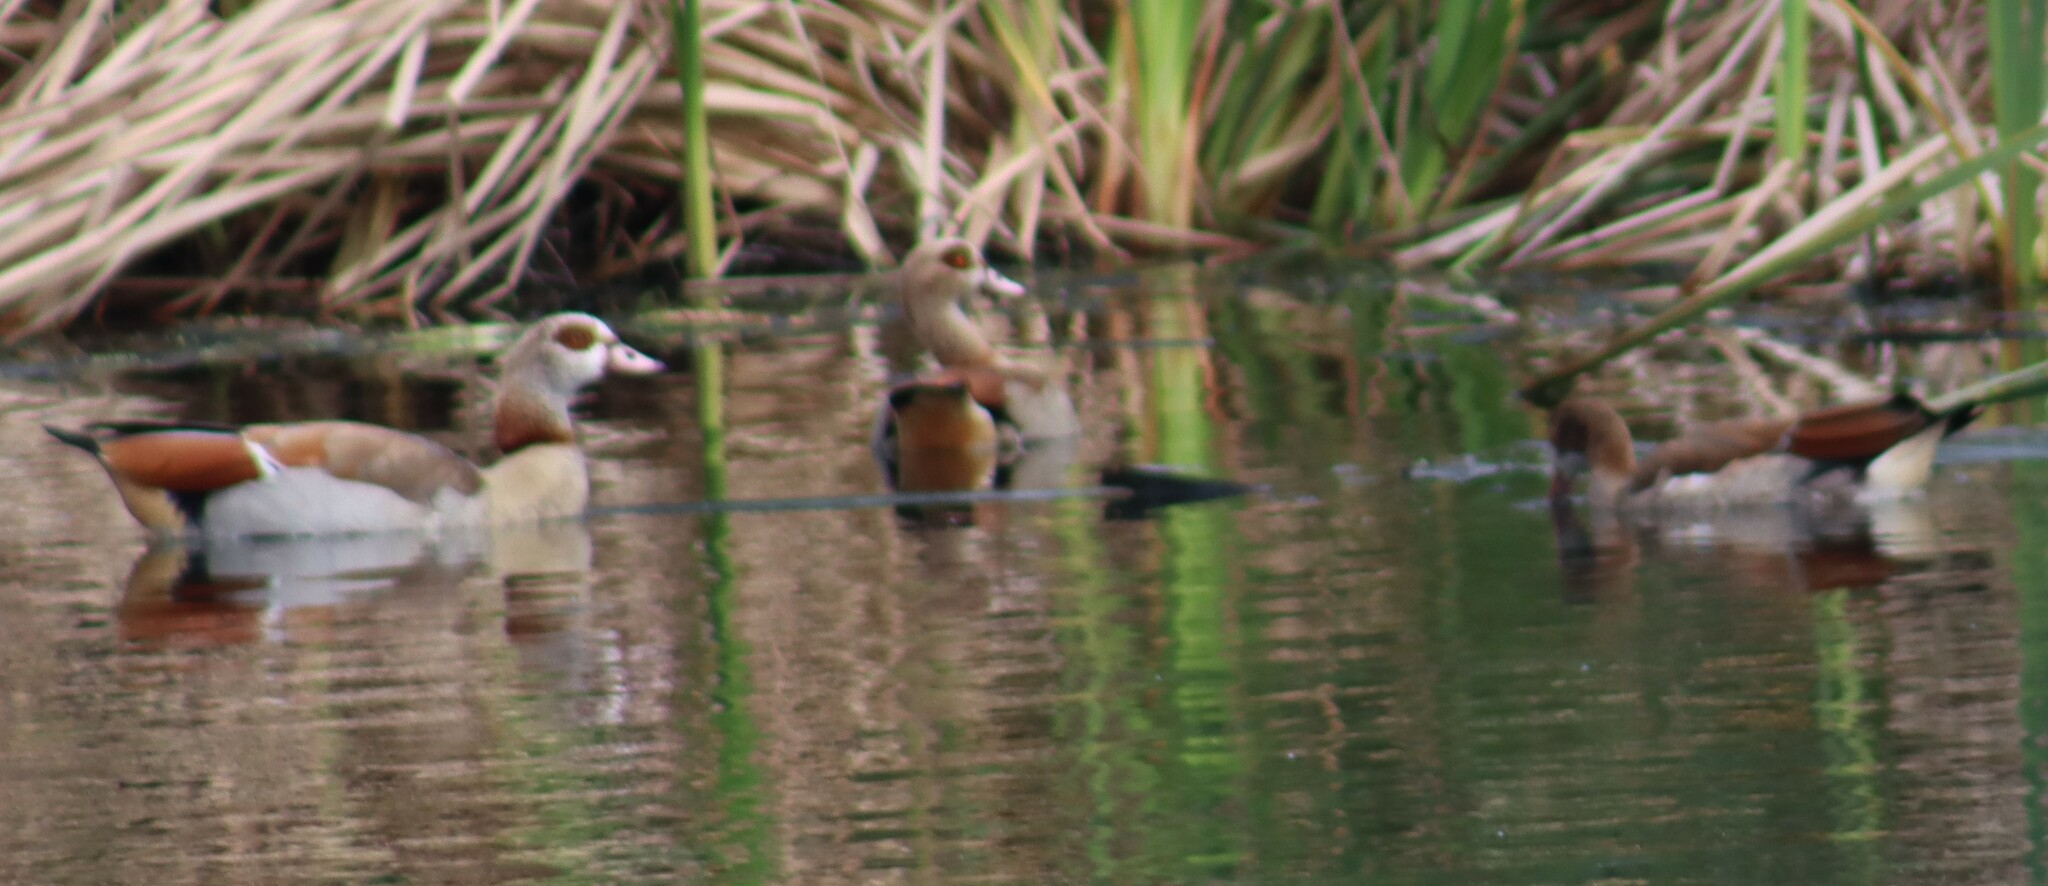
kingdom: Animalia
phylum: Chordata
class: Aves
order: Anseriformes
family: Anatidae
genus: Alopochen
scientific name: Alopochen aegyptiaca
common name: Egyptian goose
